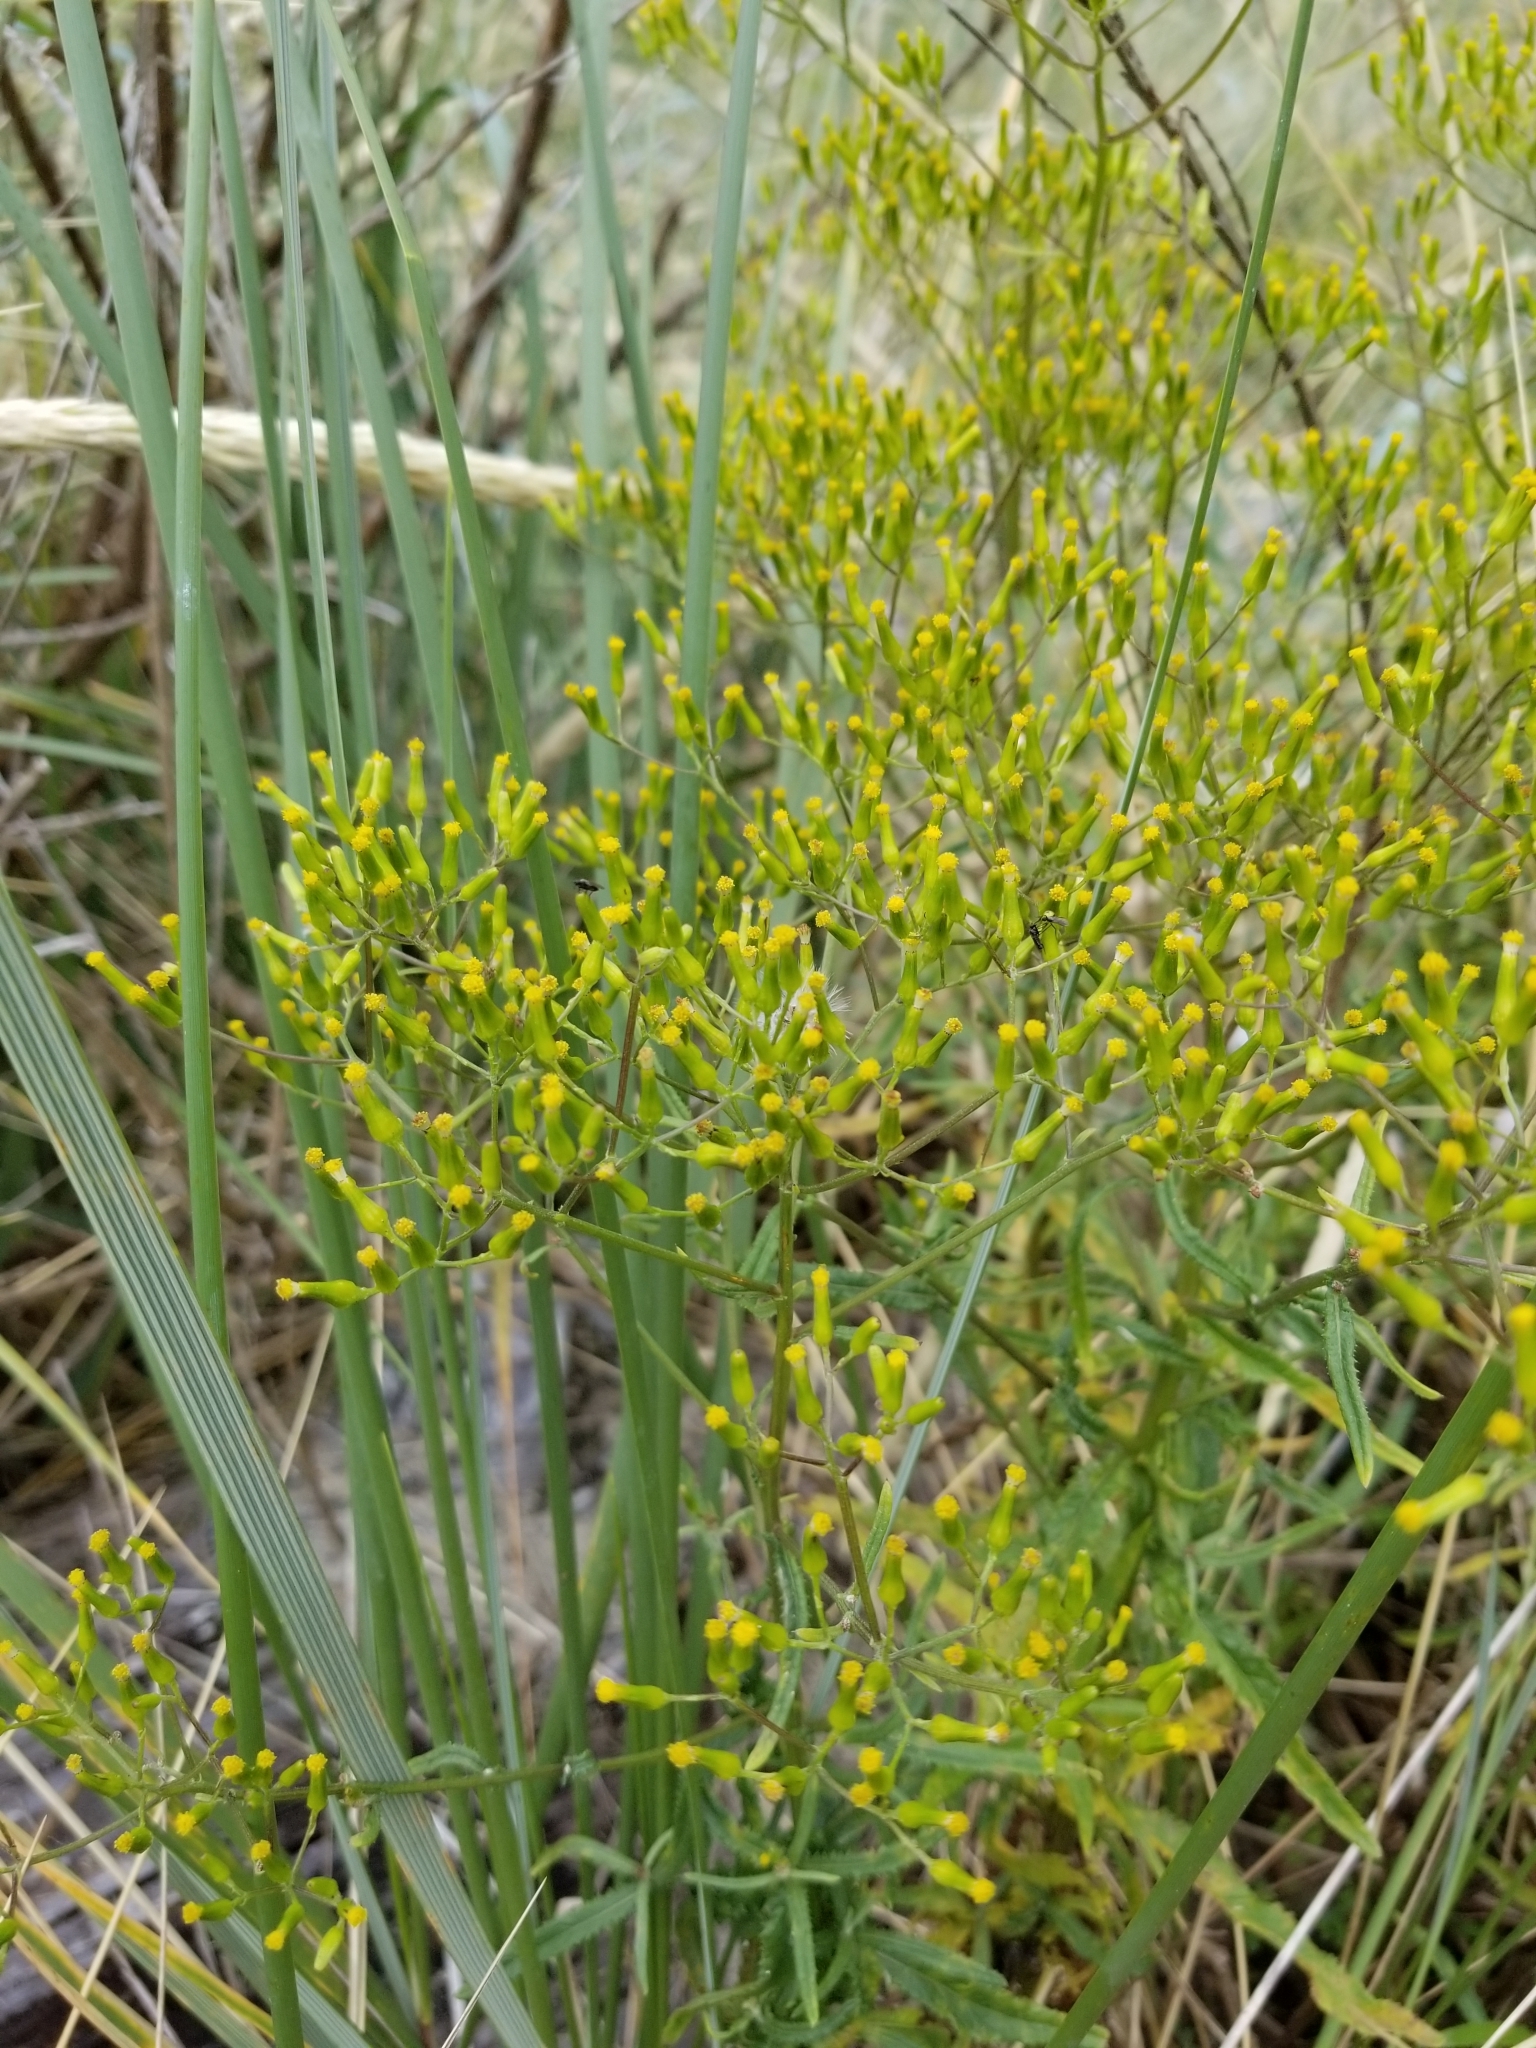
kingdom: Plantae
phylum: Tracheophyta
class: Magnoliopsida
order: Asterales
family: Asteraceae
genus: Senecio
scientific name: Senecio minimus
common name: Toothed fireweed
